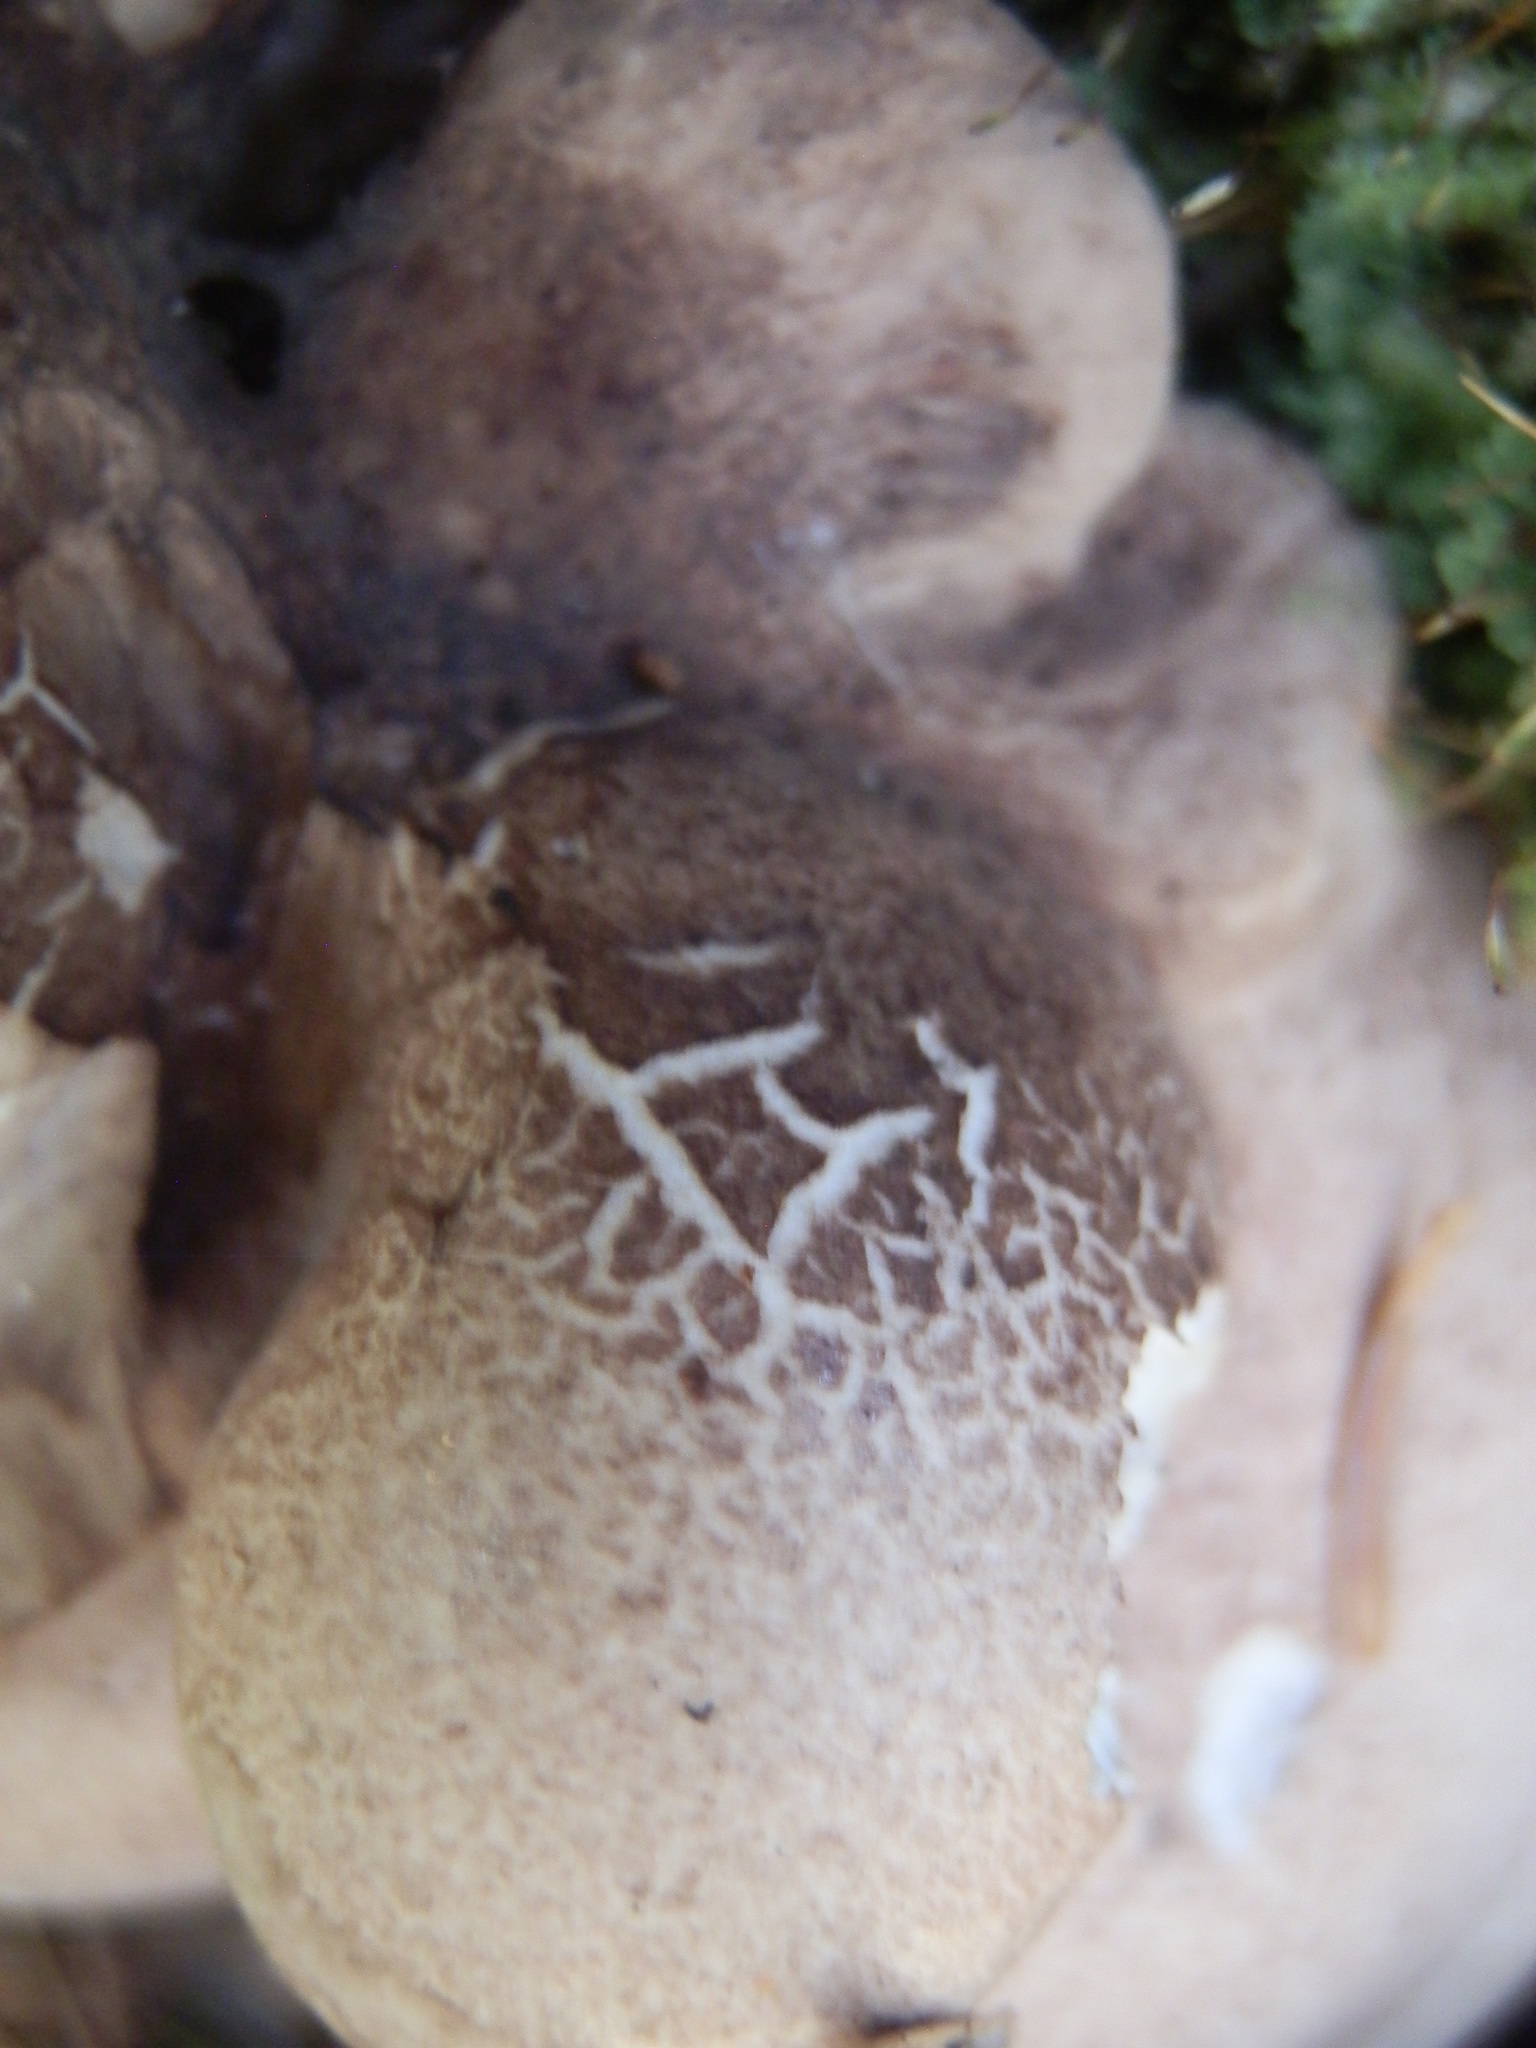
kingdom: Fungi
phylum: Basidiomycota
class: Agaricomycetes
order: Thelephorales
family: Thelephoraceae
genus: Phellodon
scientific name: Phellodon violascens
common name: Spruce tooth
